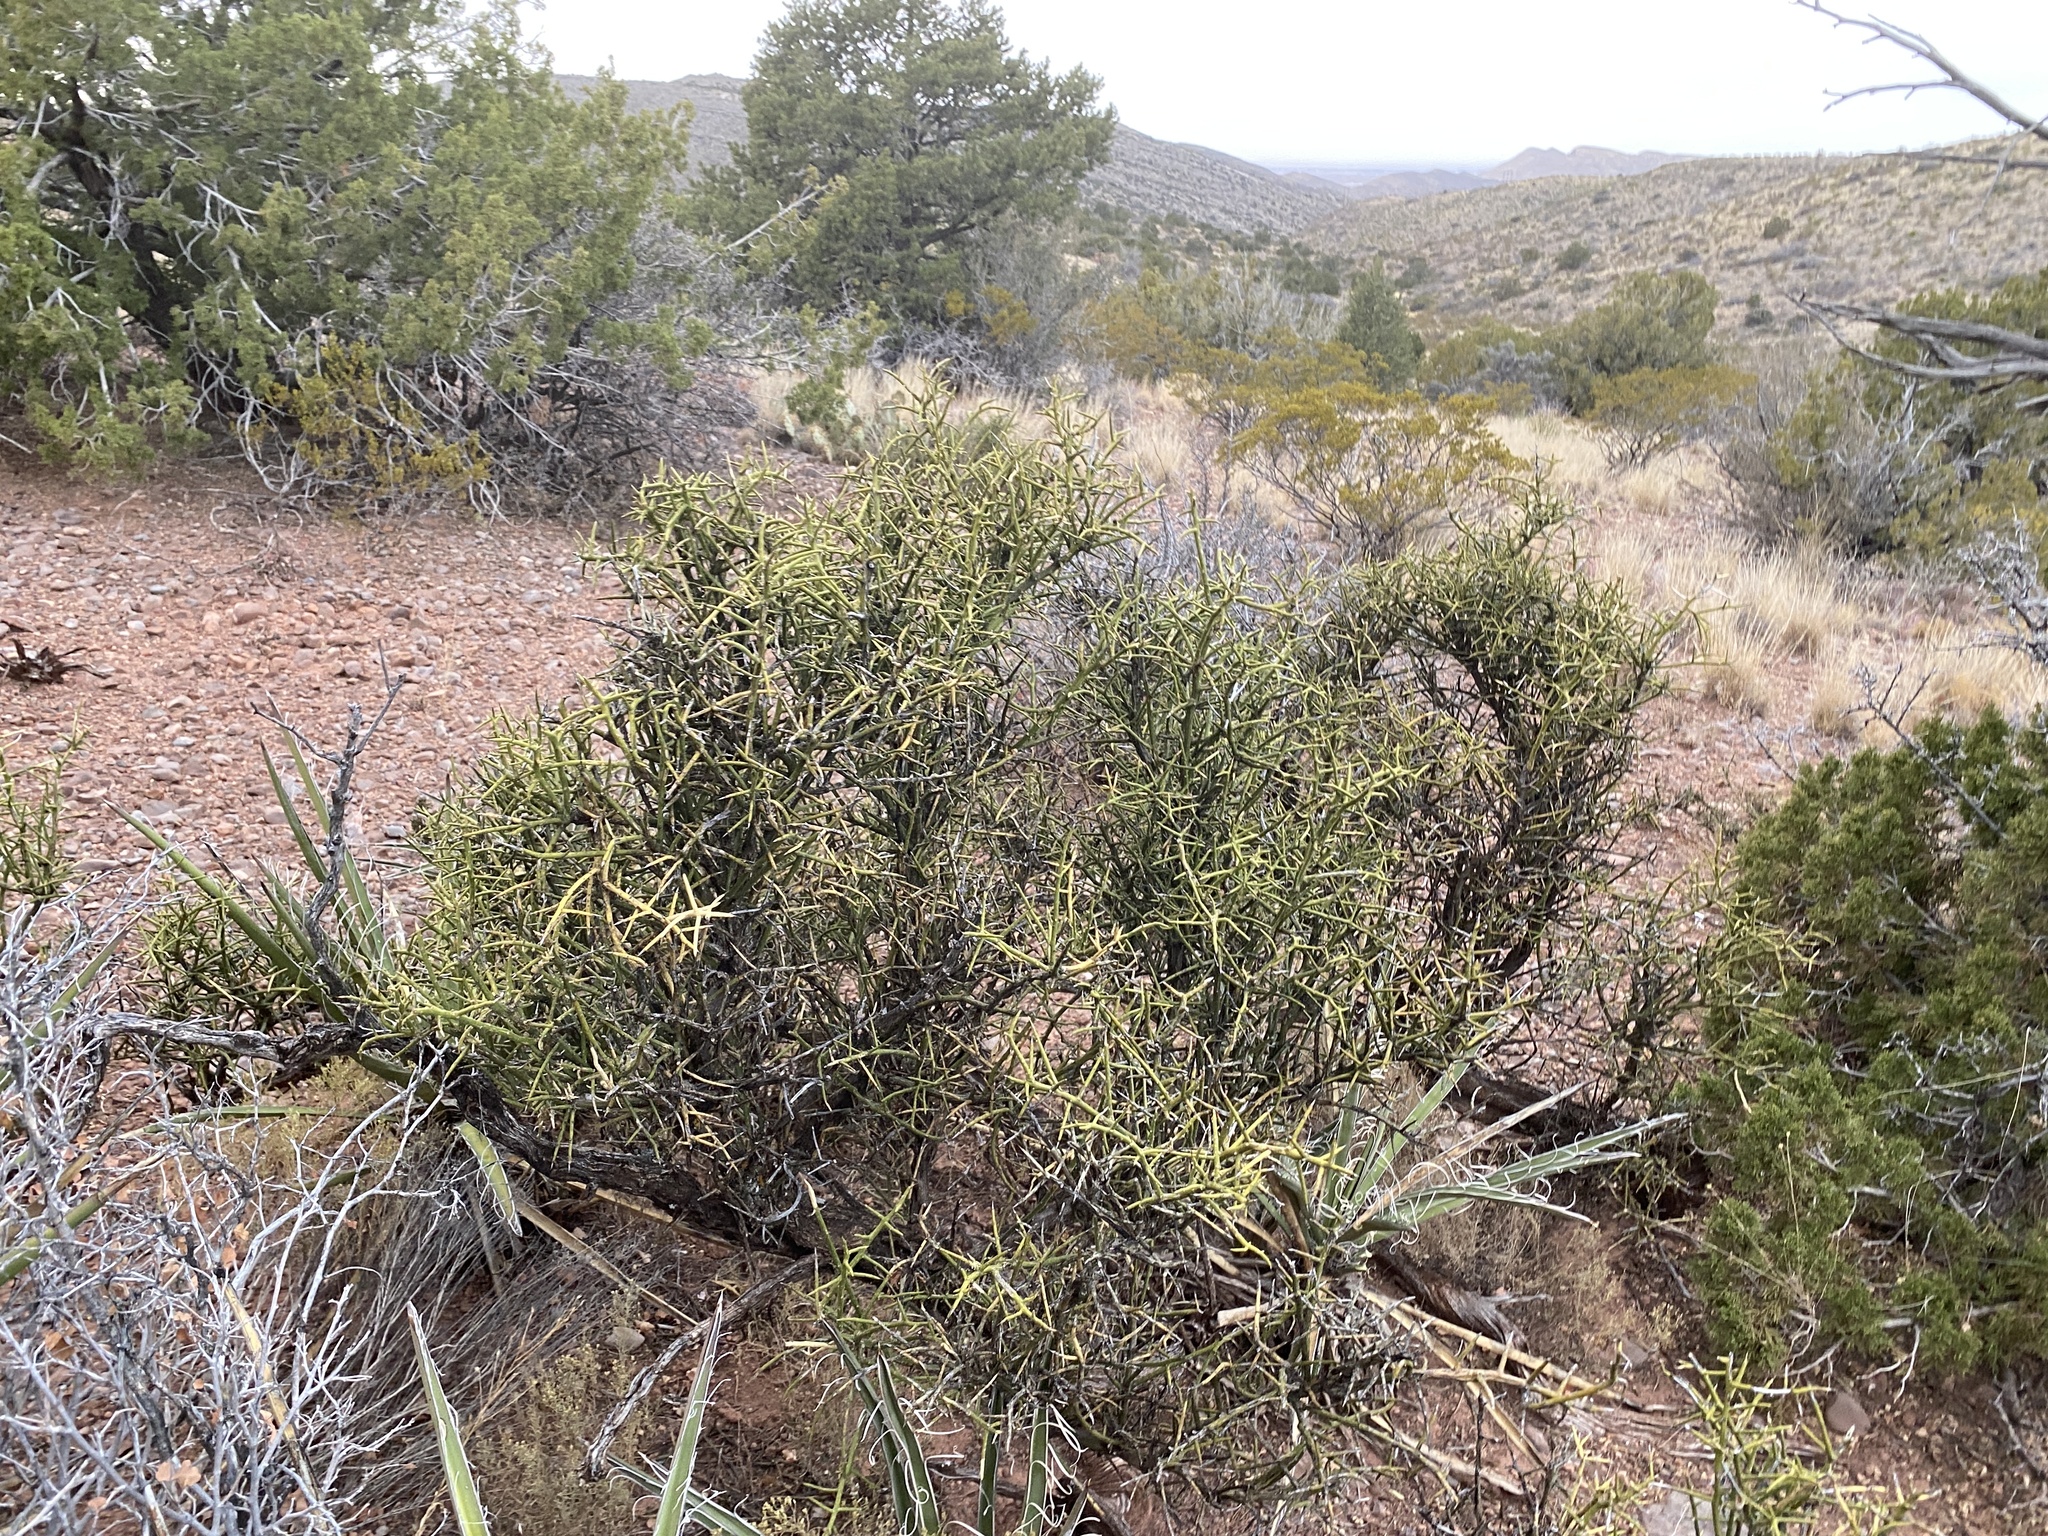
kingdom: Plantae
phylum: Tracheophyta
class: Magnoliopsida
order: Brassicales
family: Koeberliniaceae
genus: Koeberlinia
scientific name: Koeberlinia spinosa
